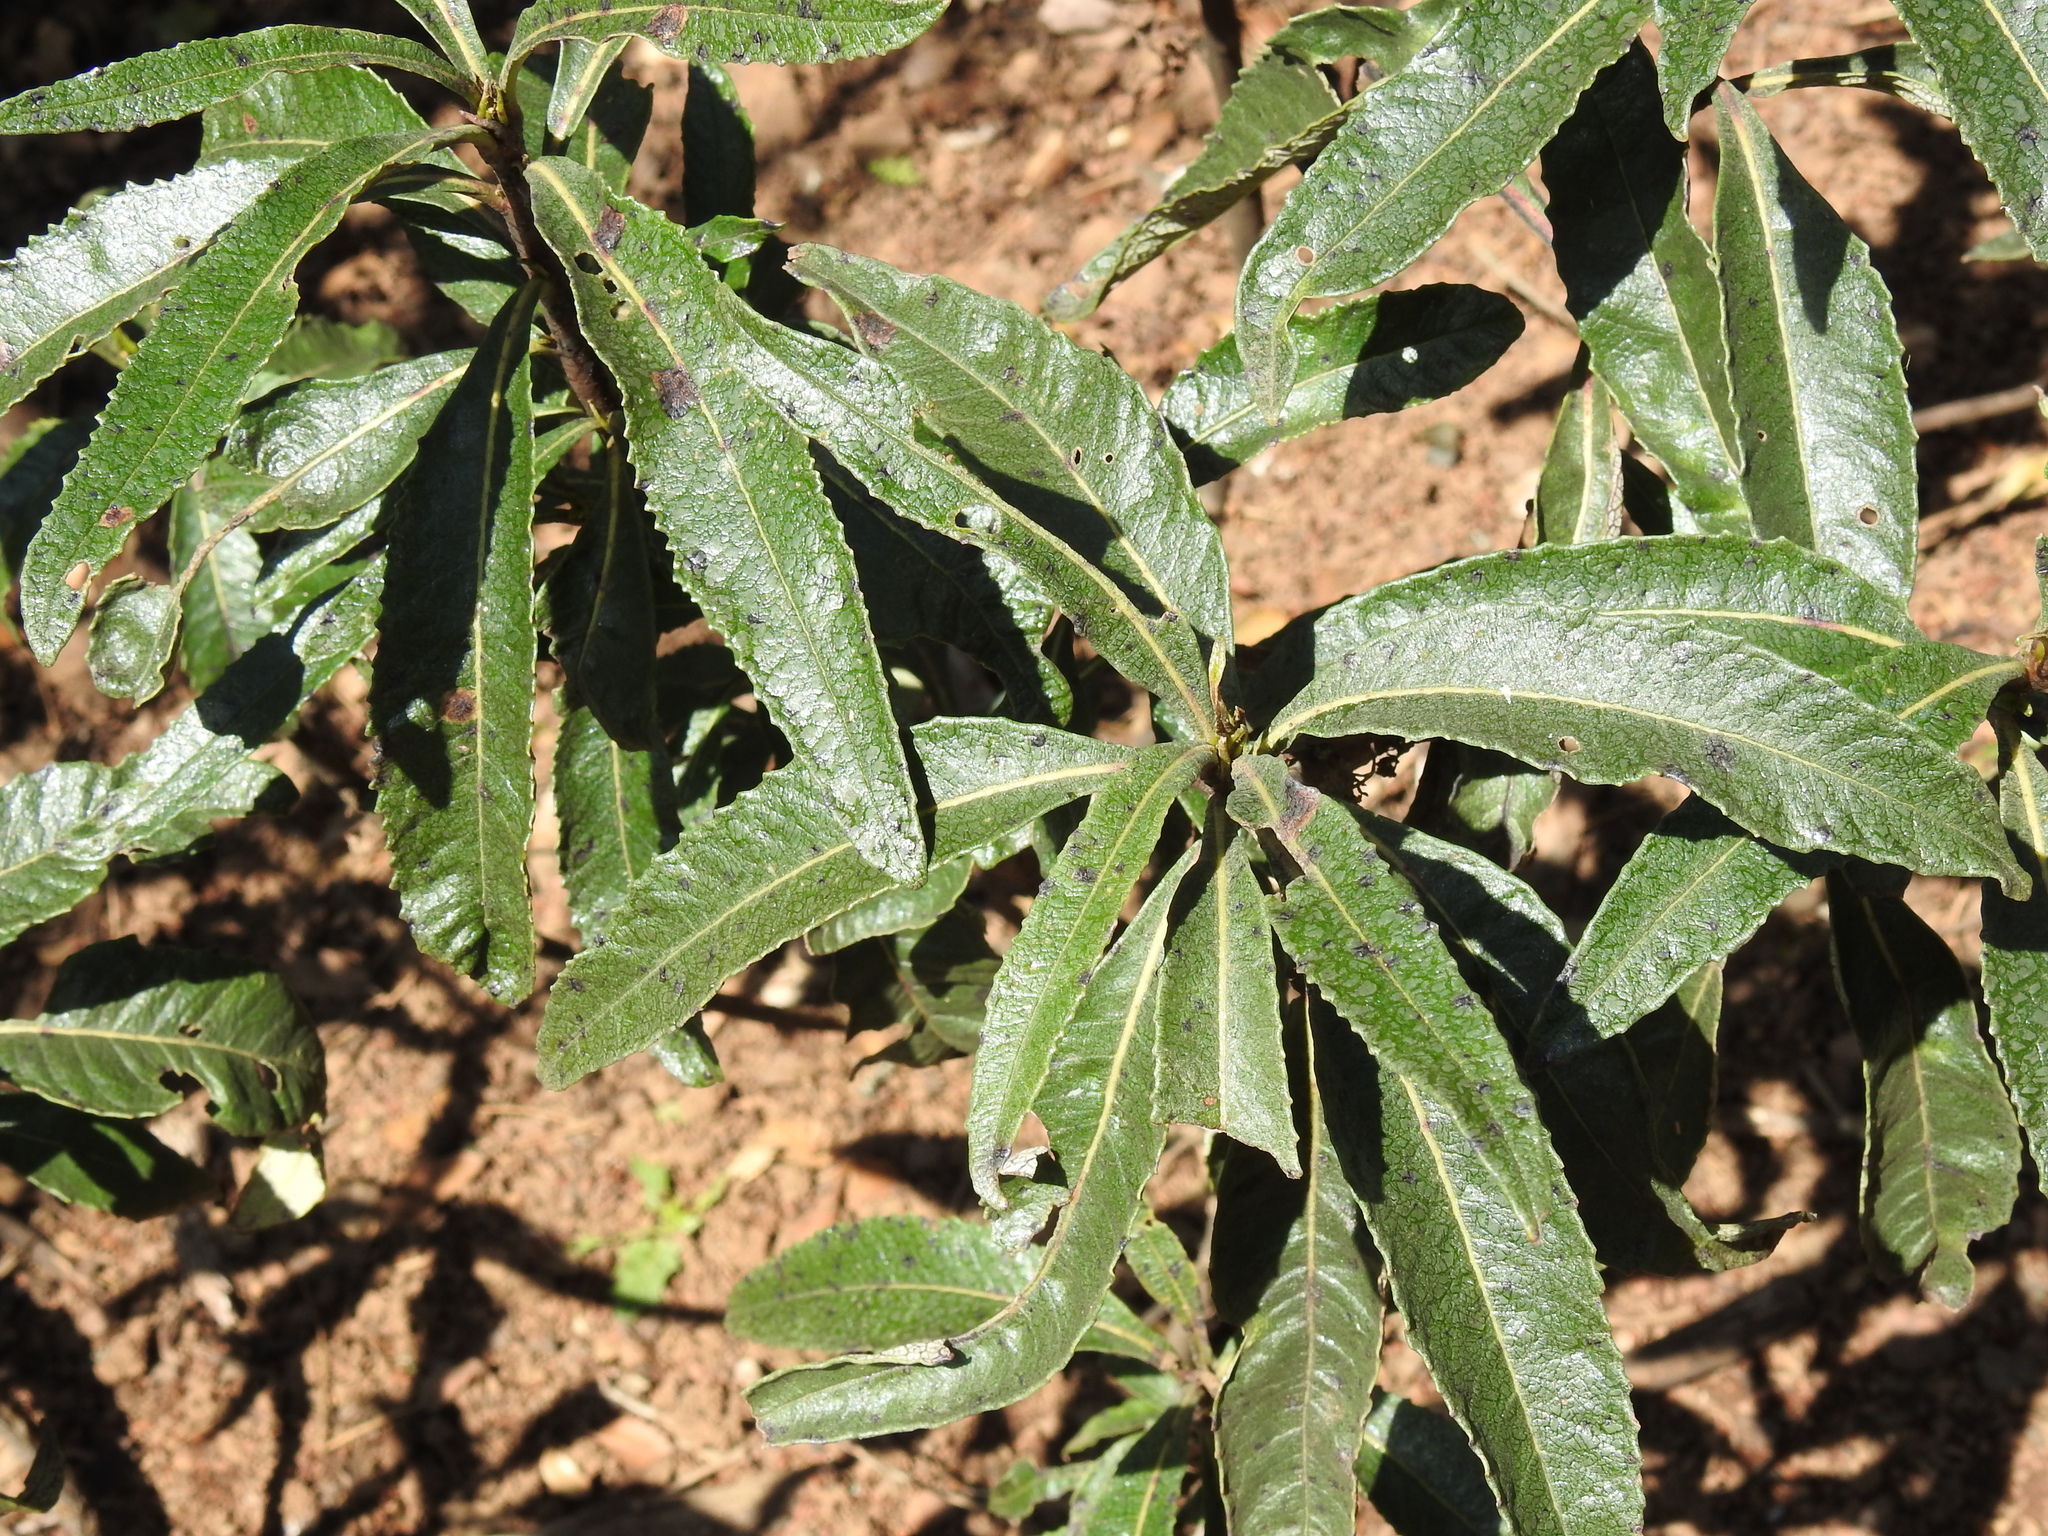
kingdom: Plantae
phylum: Tracheophyta
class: Magnoliopsida
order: Boraginales
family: Namaceae
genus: Eriodictyon
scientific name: Eriodictyon californicum
